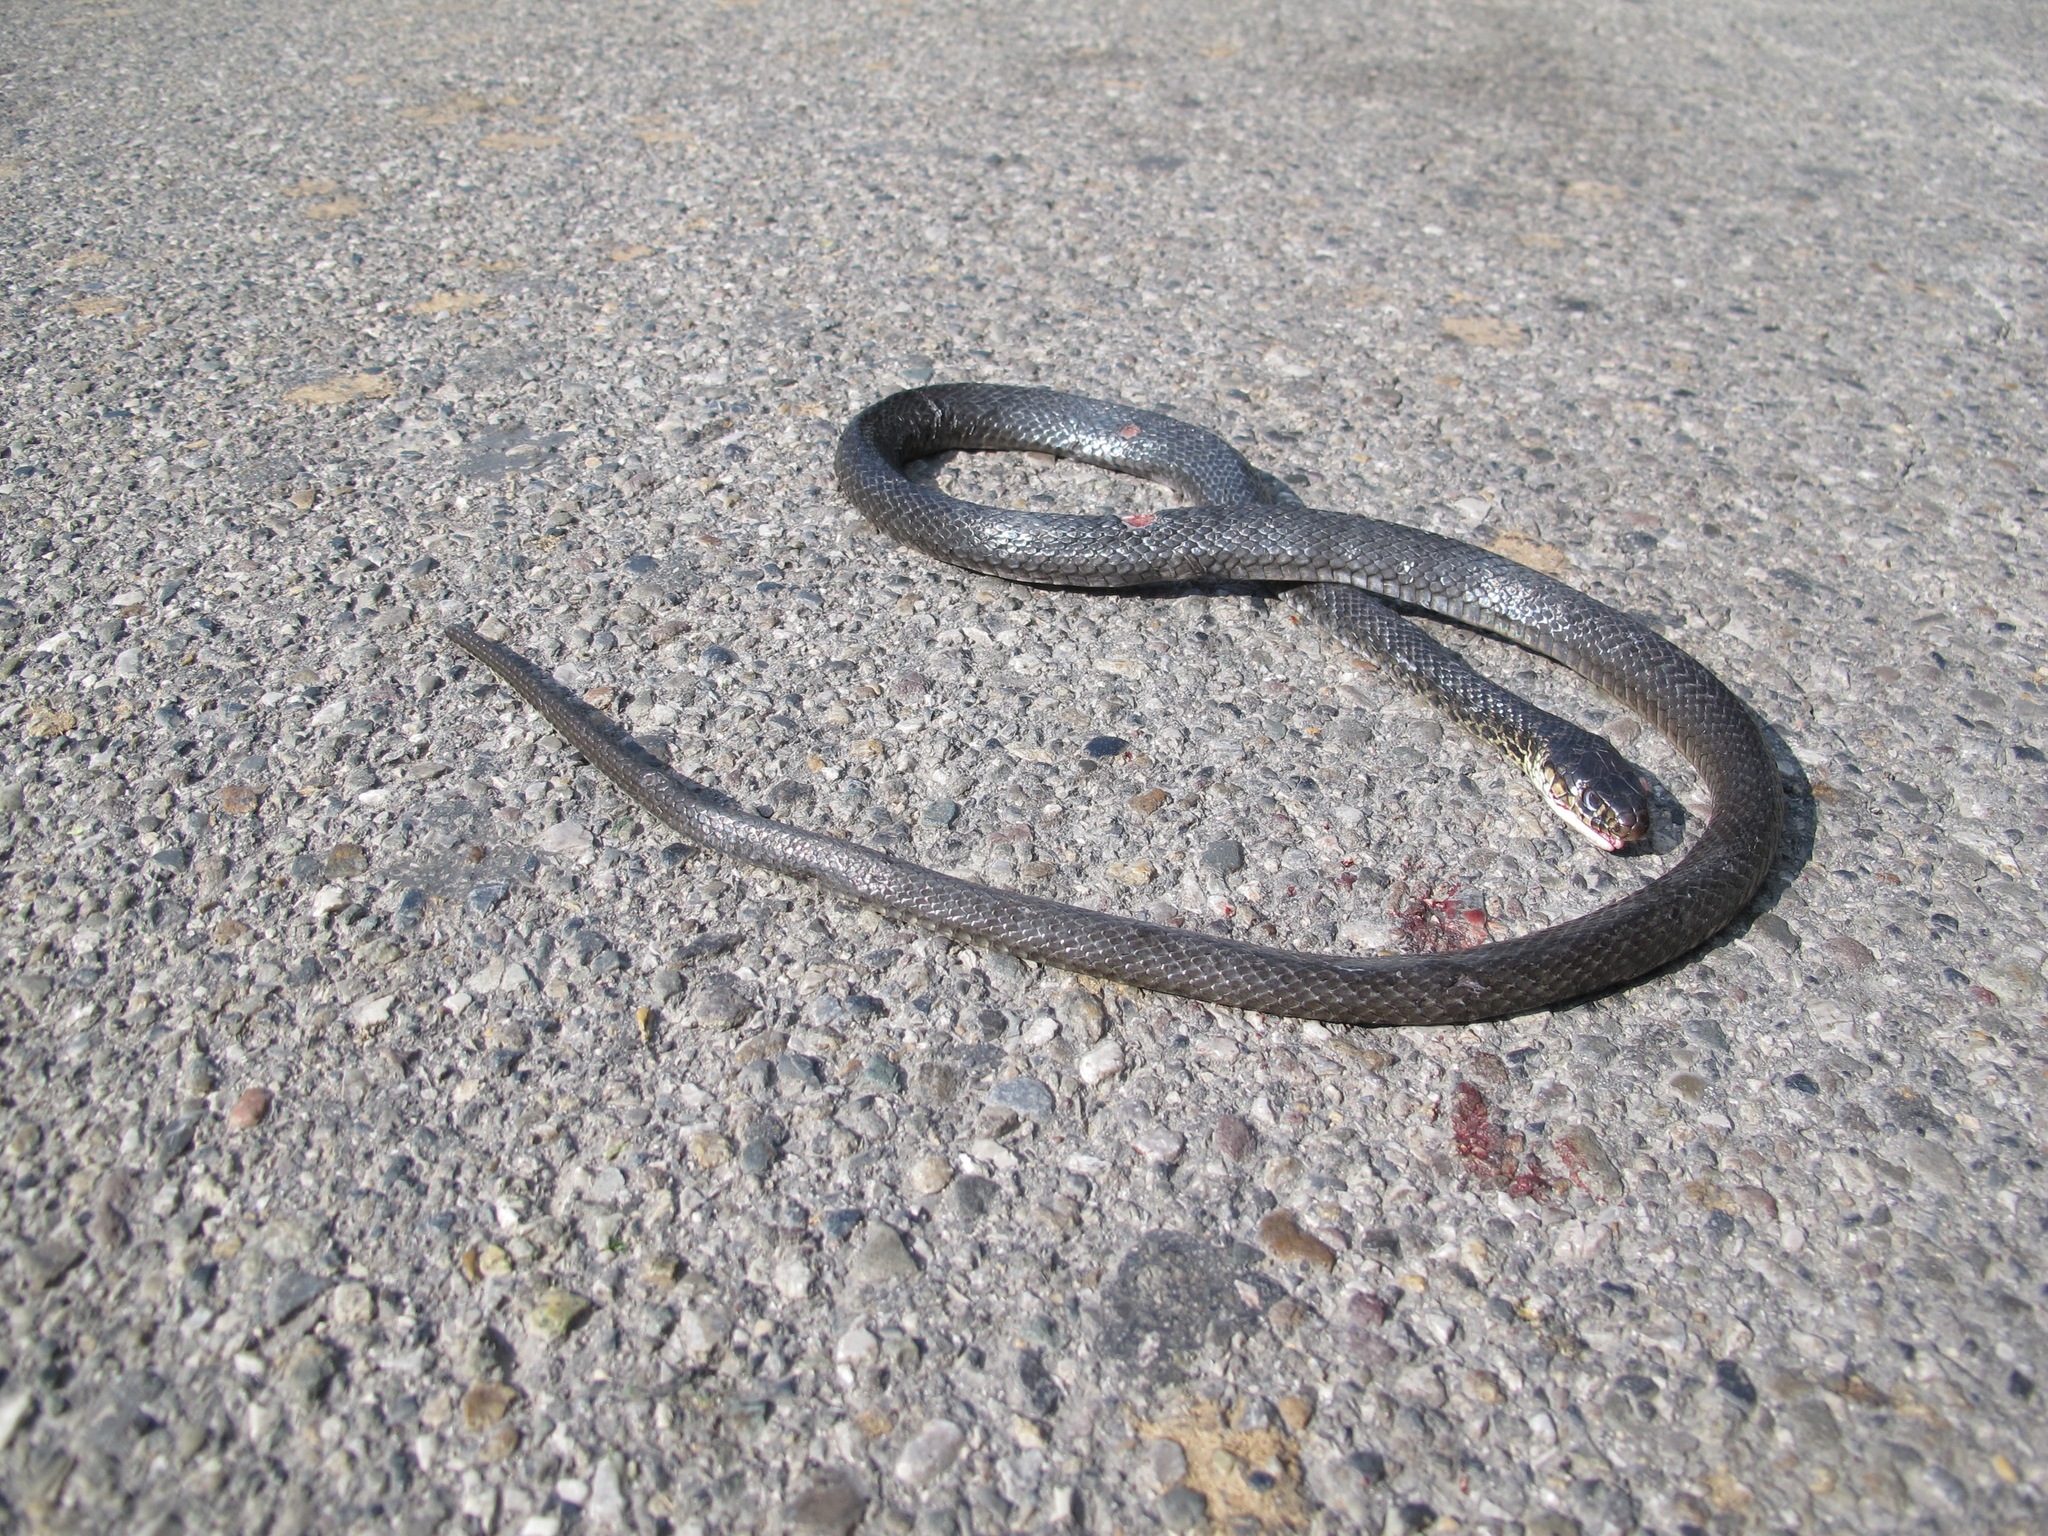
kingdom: Animalia
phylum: Chordata
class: Squamata
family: Colubridae
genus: Hierophis
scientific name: Hierophis viridiflavus
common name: Green whip snake
